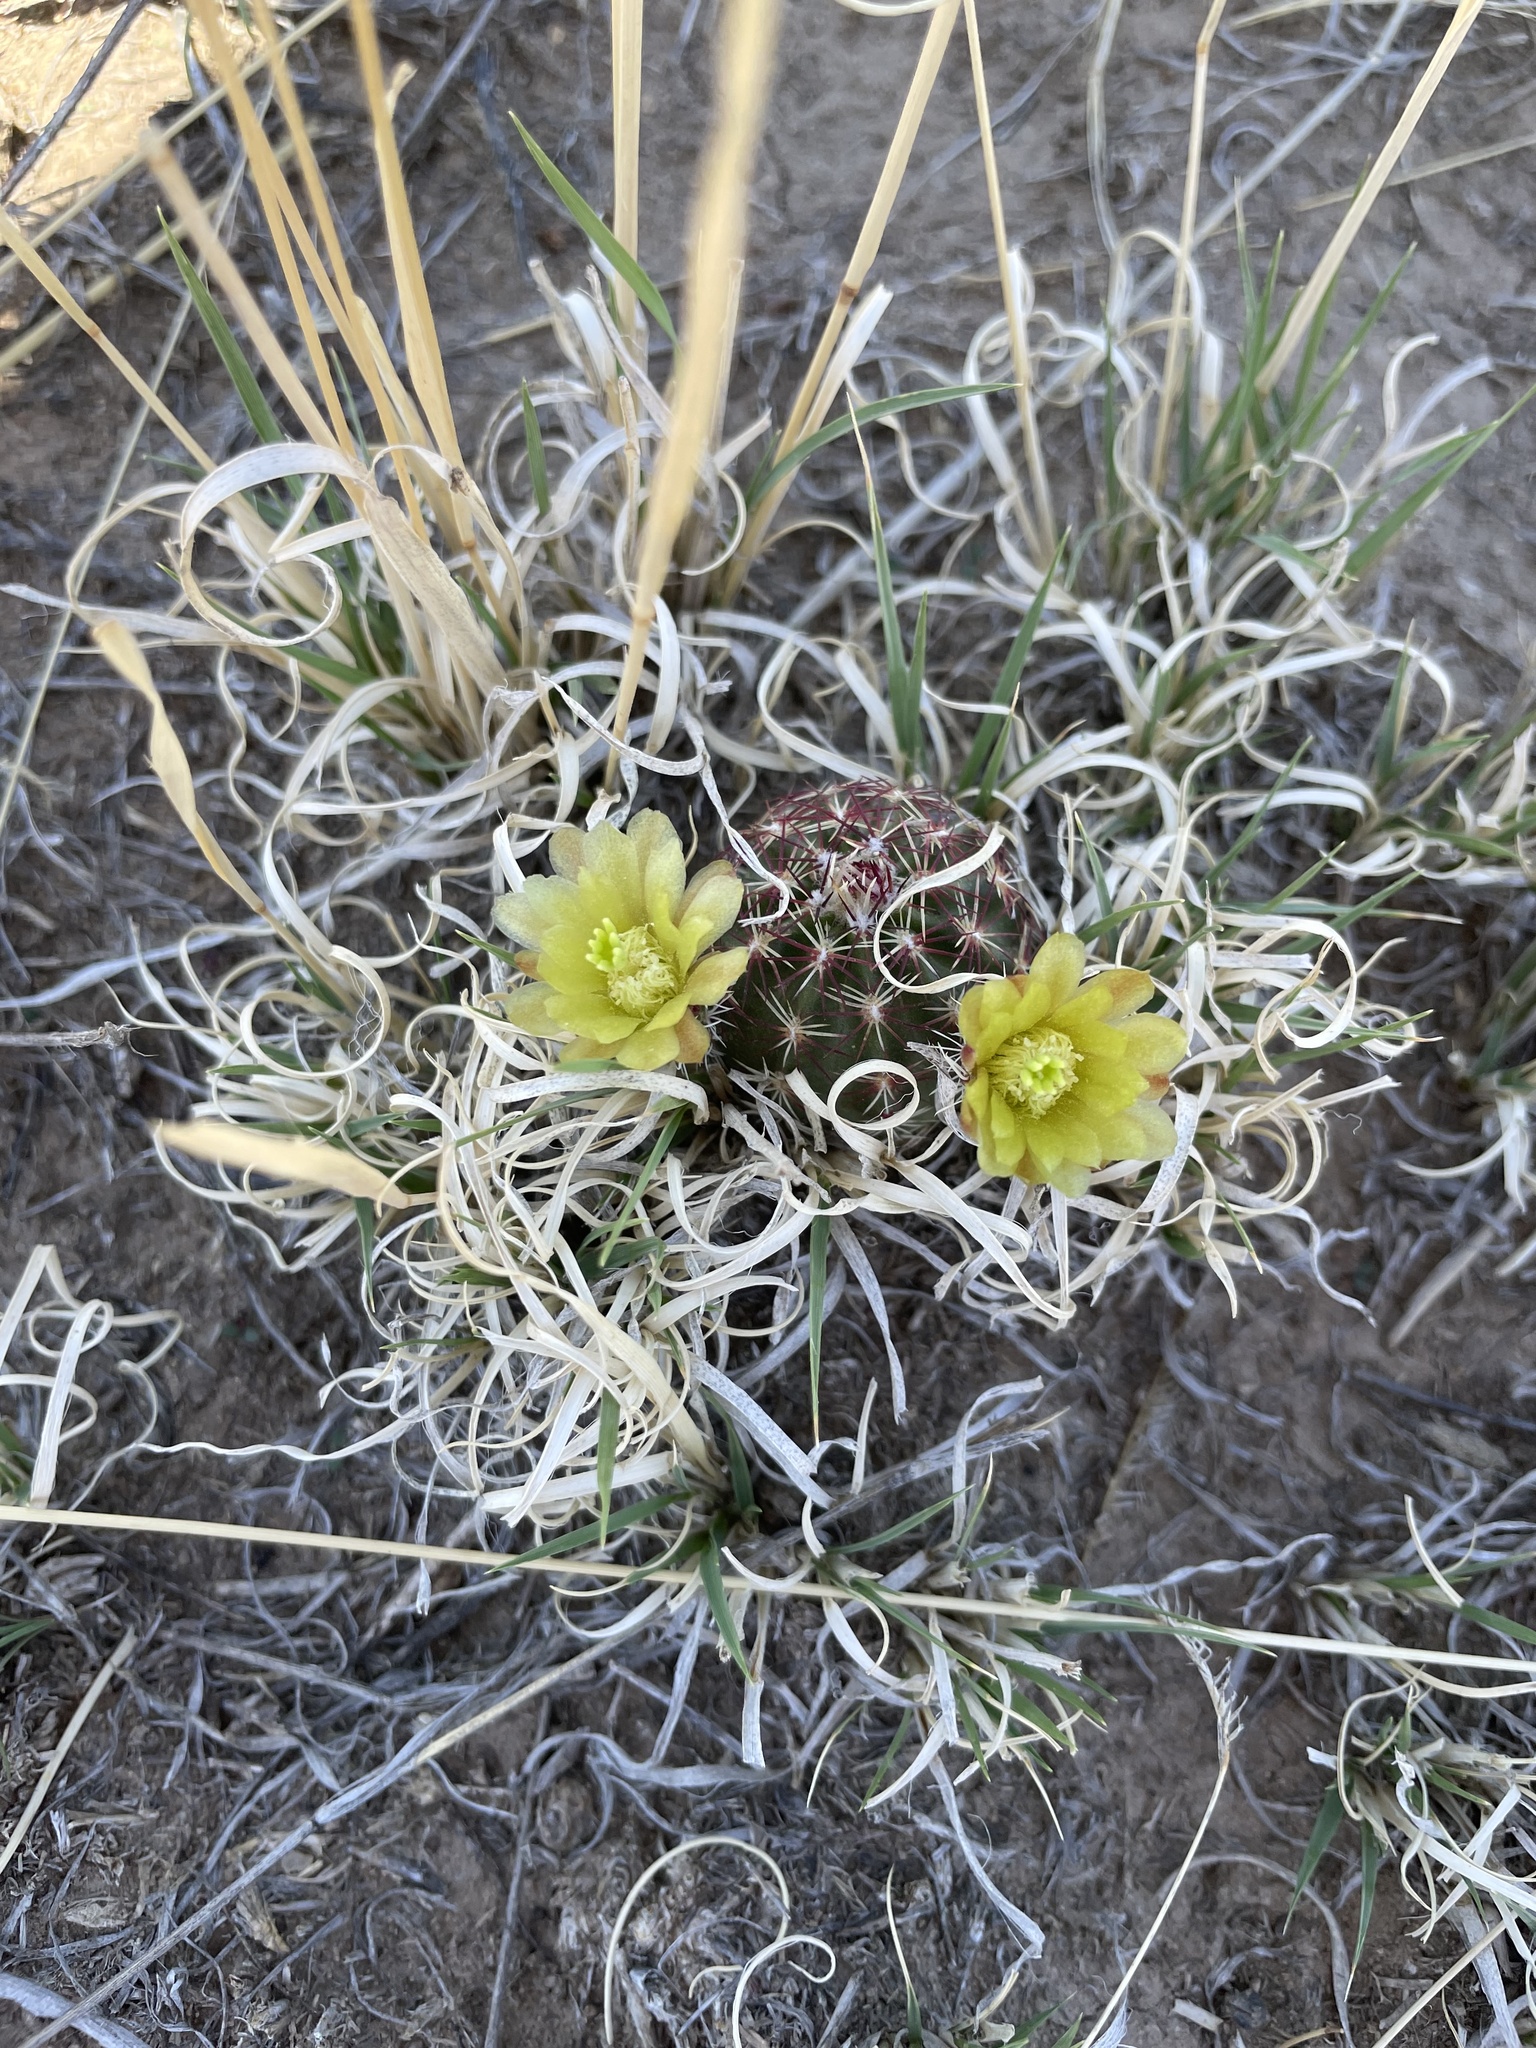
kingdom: Plantae
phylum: Tracheophyta
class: Magnoliopsida
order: Caryophyllales
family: Cactaceae
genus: Echinocereus
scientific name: Echinocereus viridiflorus
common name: Nylon hedgehog cactus
